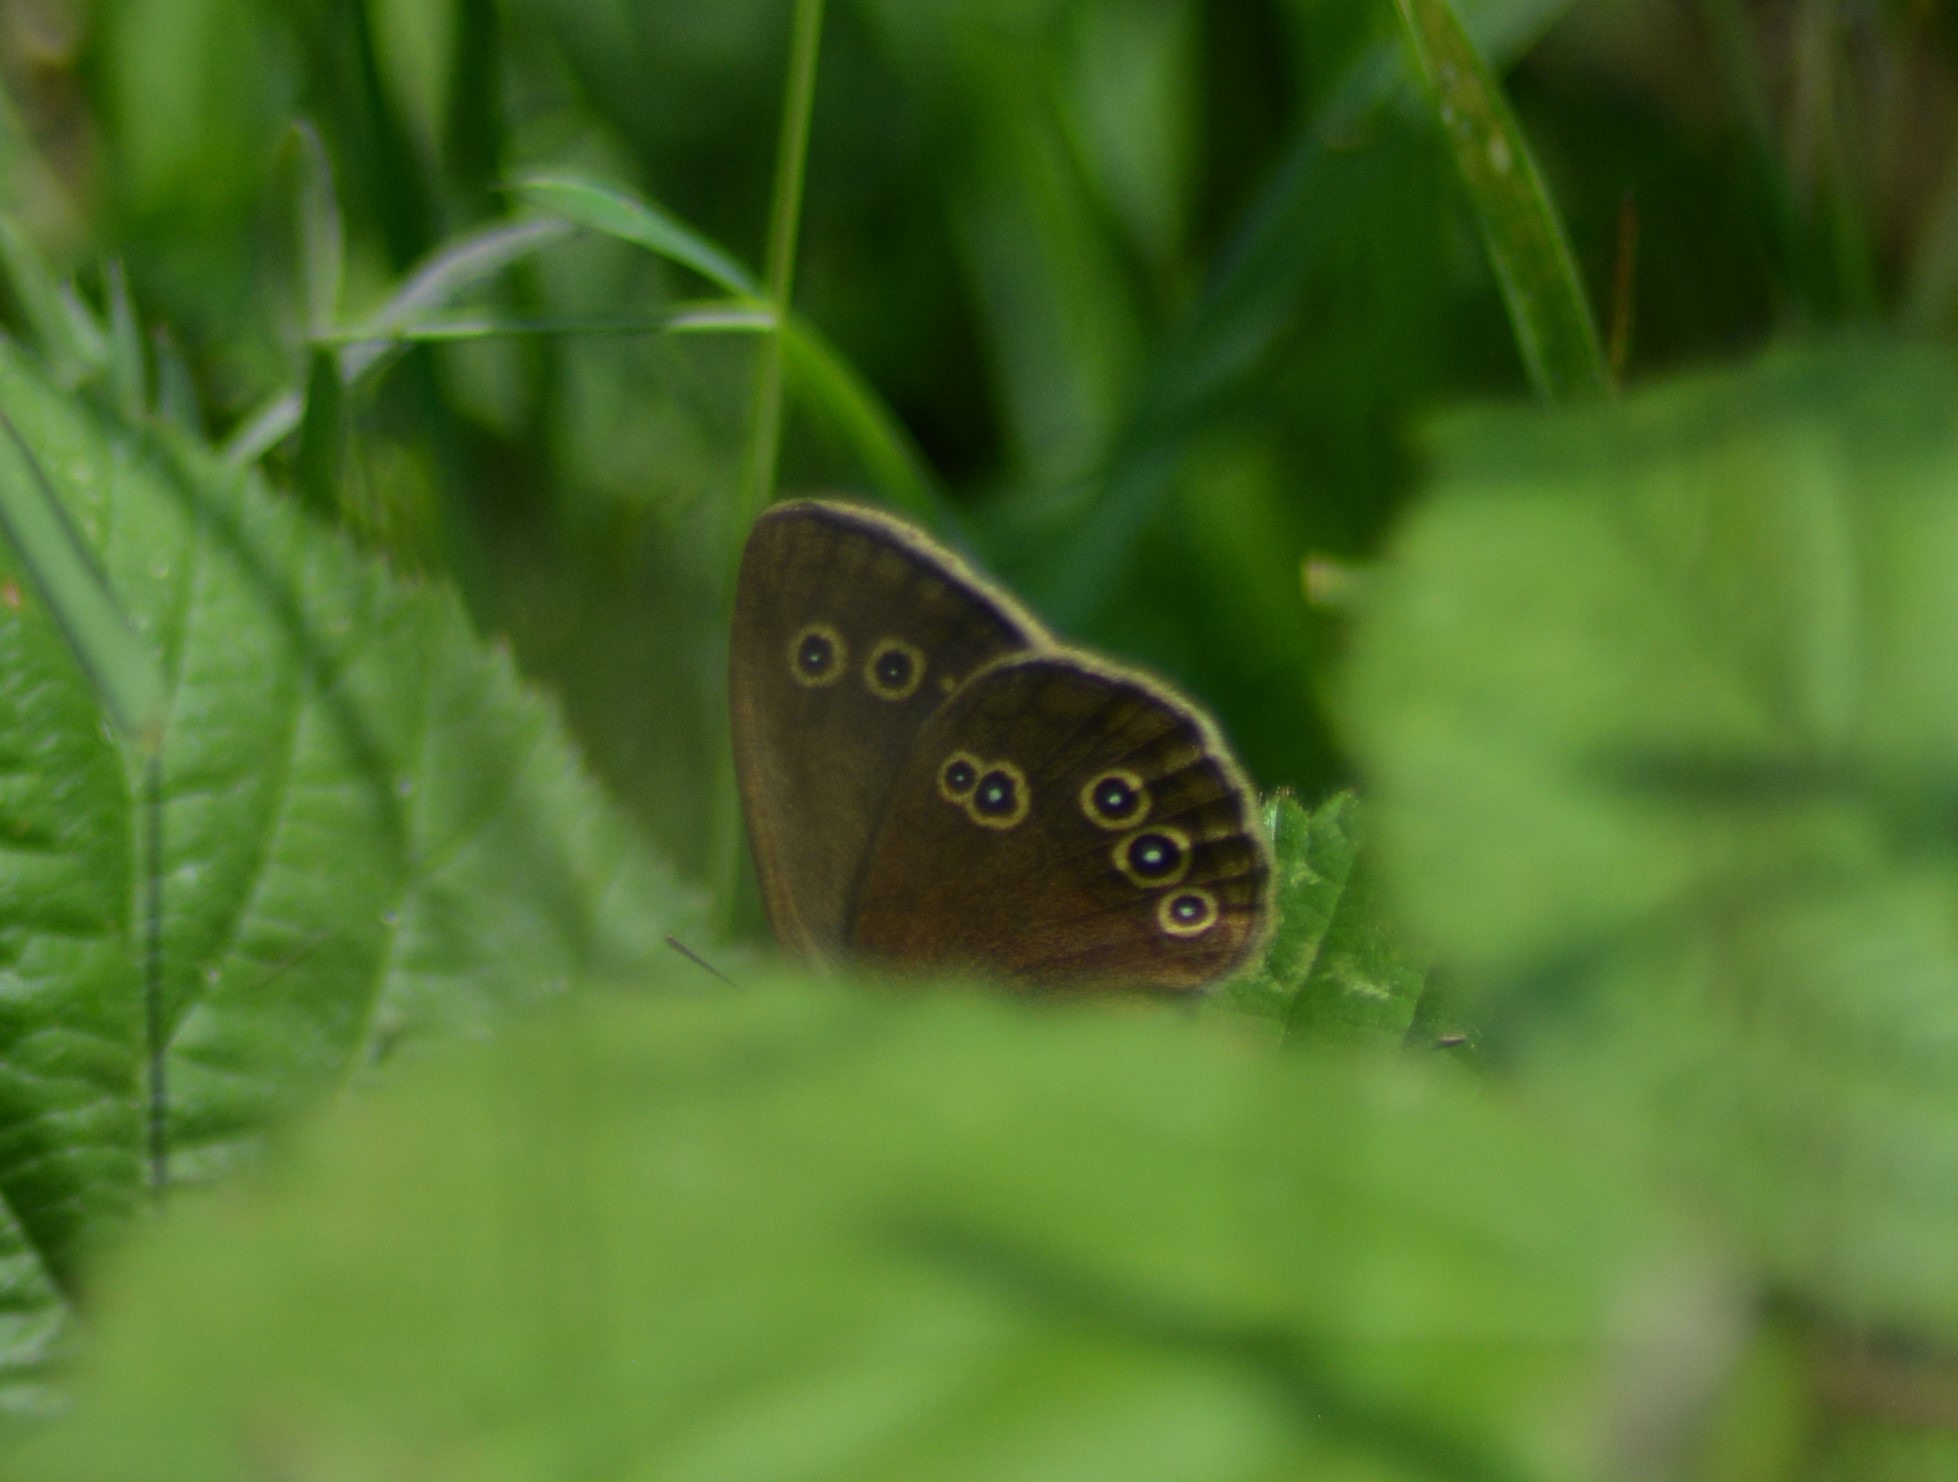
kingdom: Animalia
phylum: Arthropoda
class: Insecta
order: Lepidoptera
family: Nymphalidae
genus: Aphantopus
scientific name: Aphantopus hyperantus
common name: Ringlet
